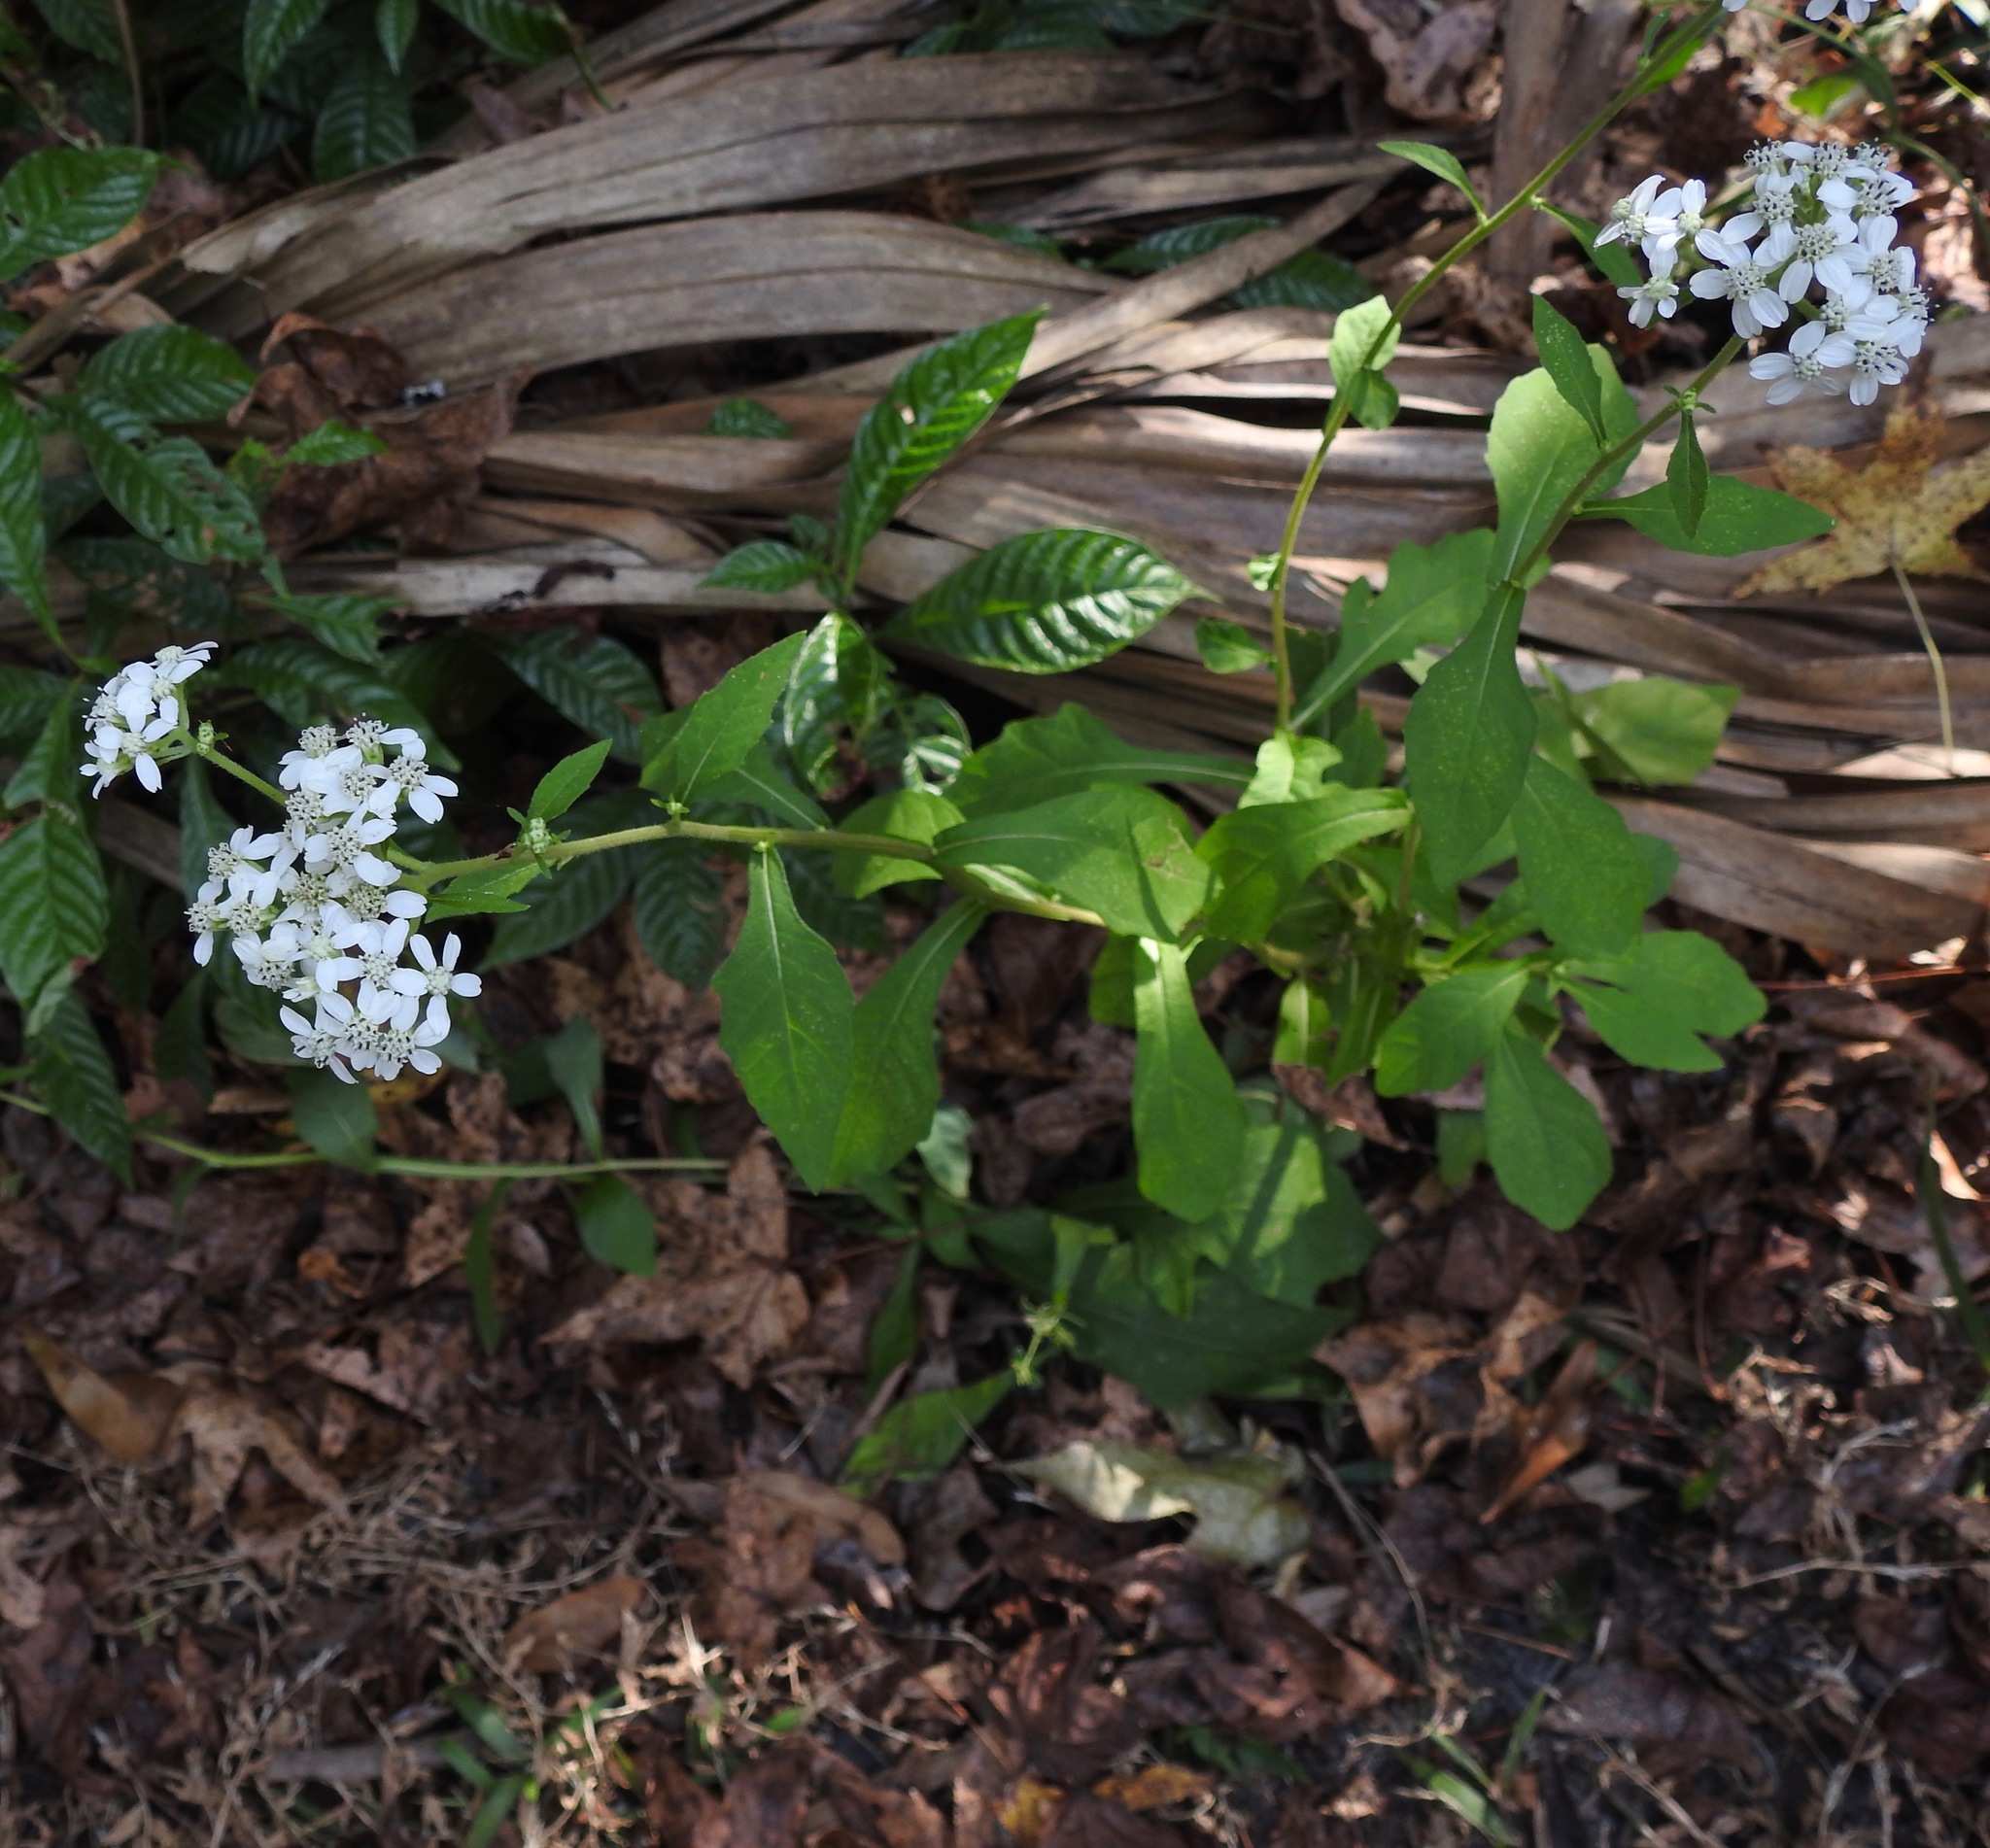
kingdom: Plantae
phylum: Tracheophyta
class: Magnoliopsida
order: Asterales
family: Asteraceae
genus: Verbesina
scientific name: Verbesina virginica
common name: Frostweed
